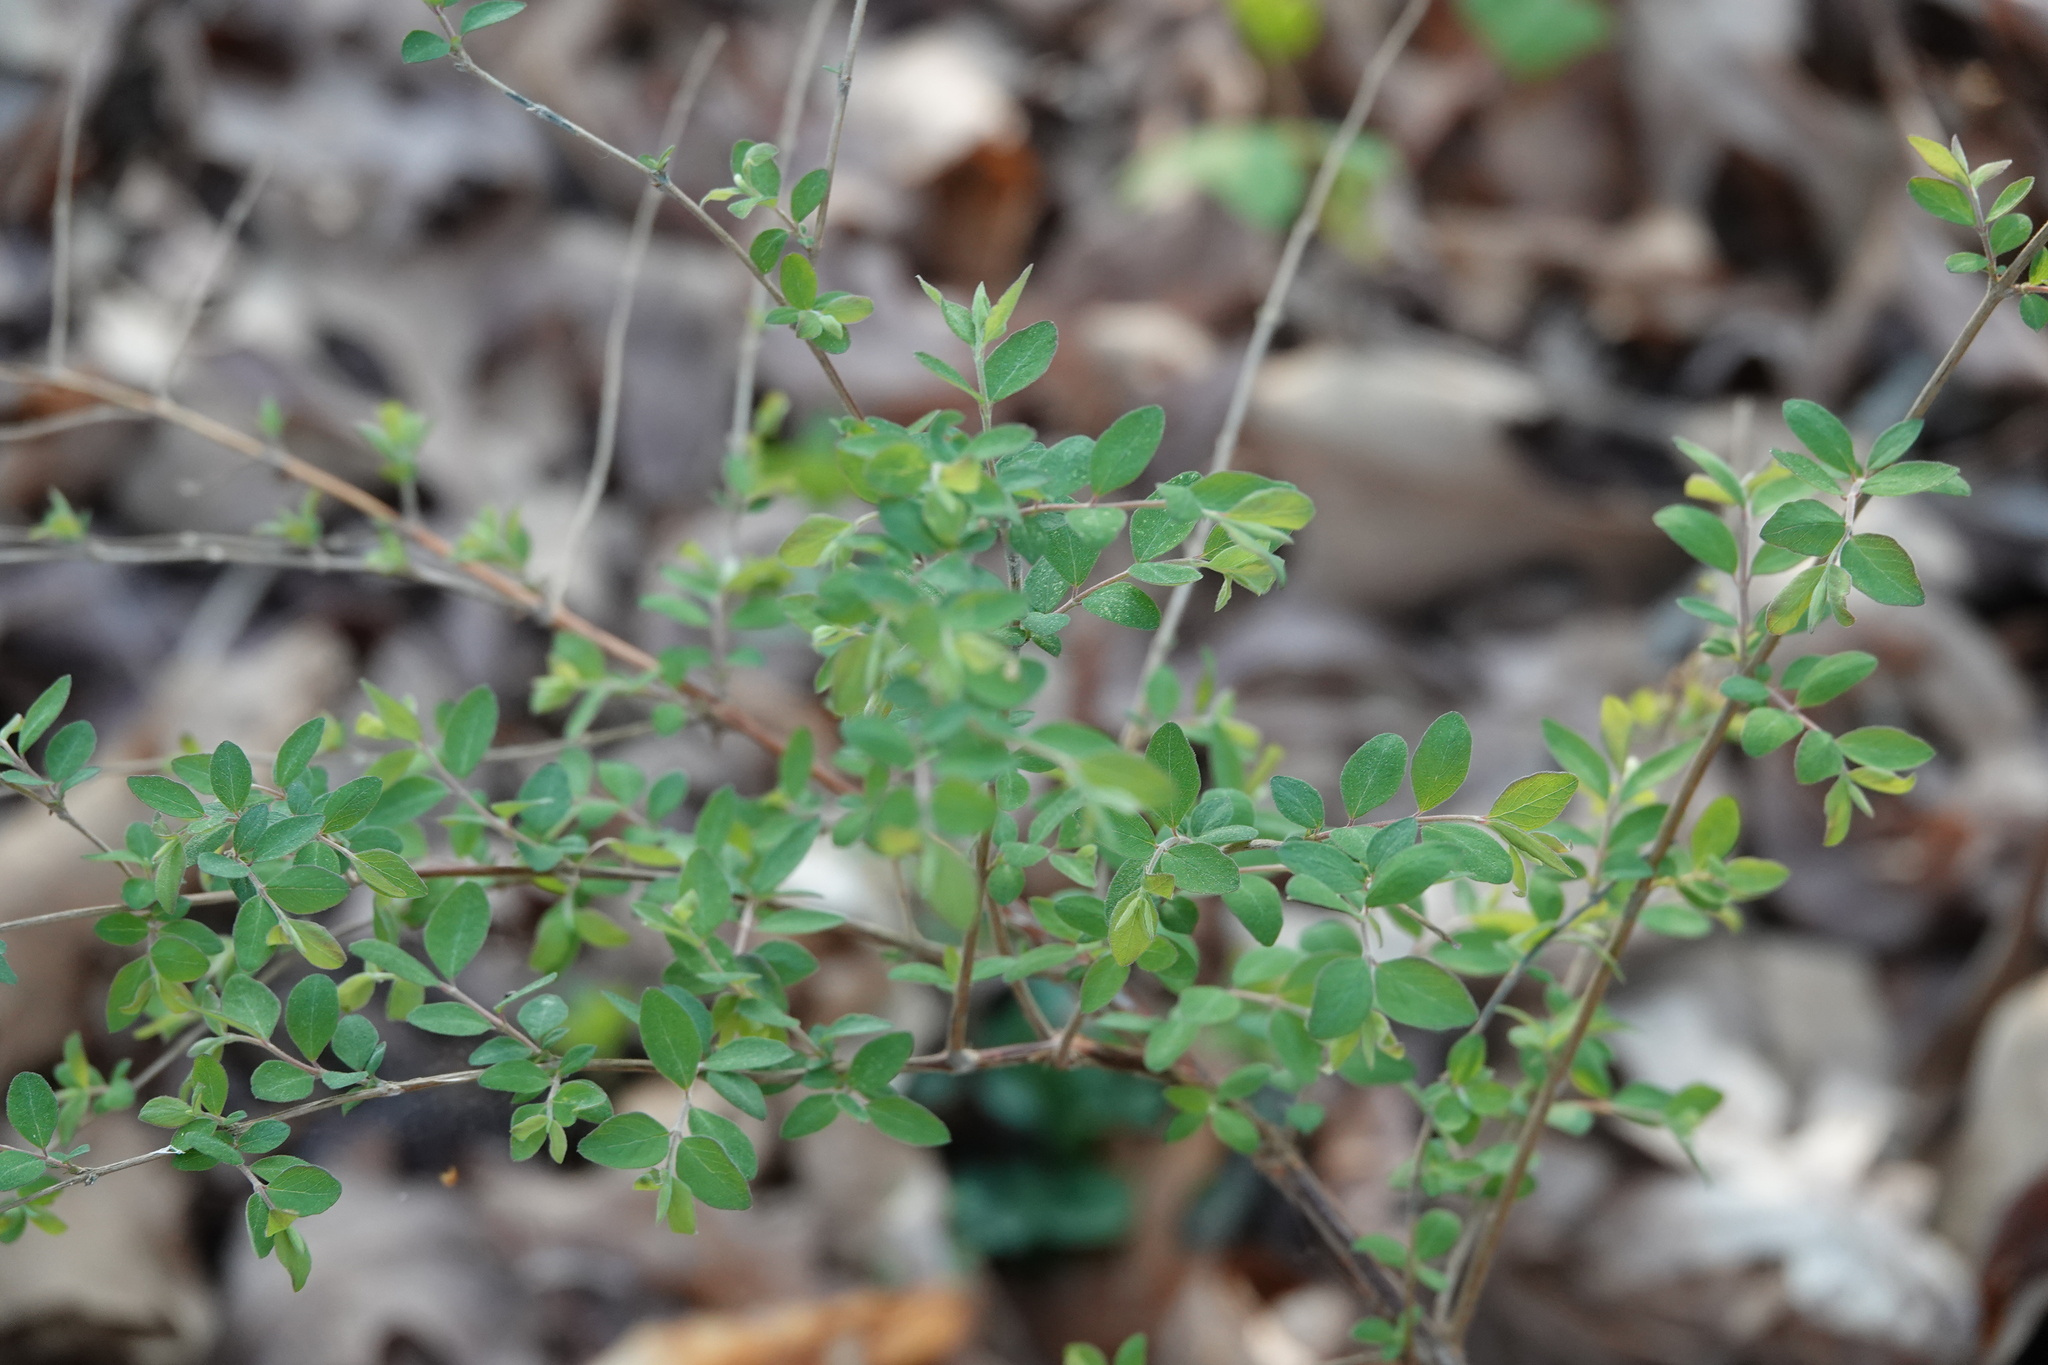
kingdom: Plantae
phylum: Tracheophyta
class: Magnoliopsida
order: Dipsacales
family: Caprifoliaceae
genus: Symphoricarpos
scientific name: Symphoricarpos orbiculatus
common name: Coralberry
